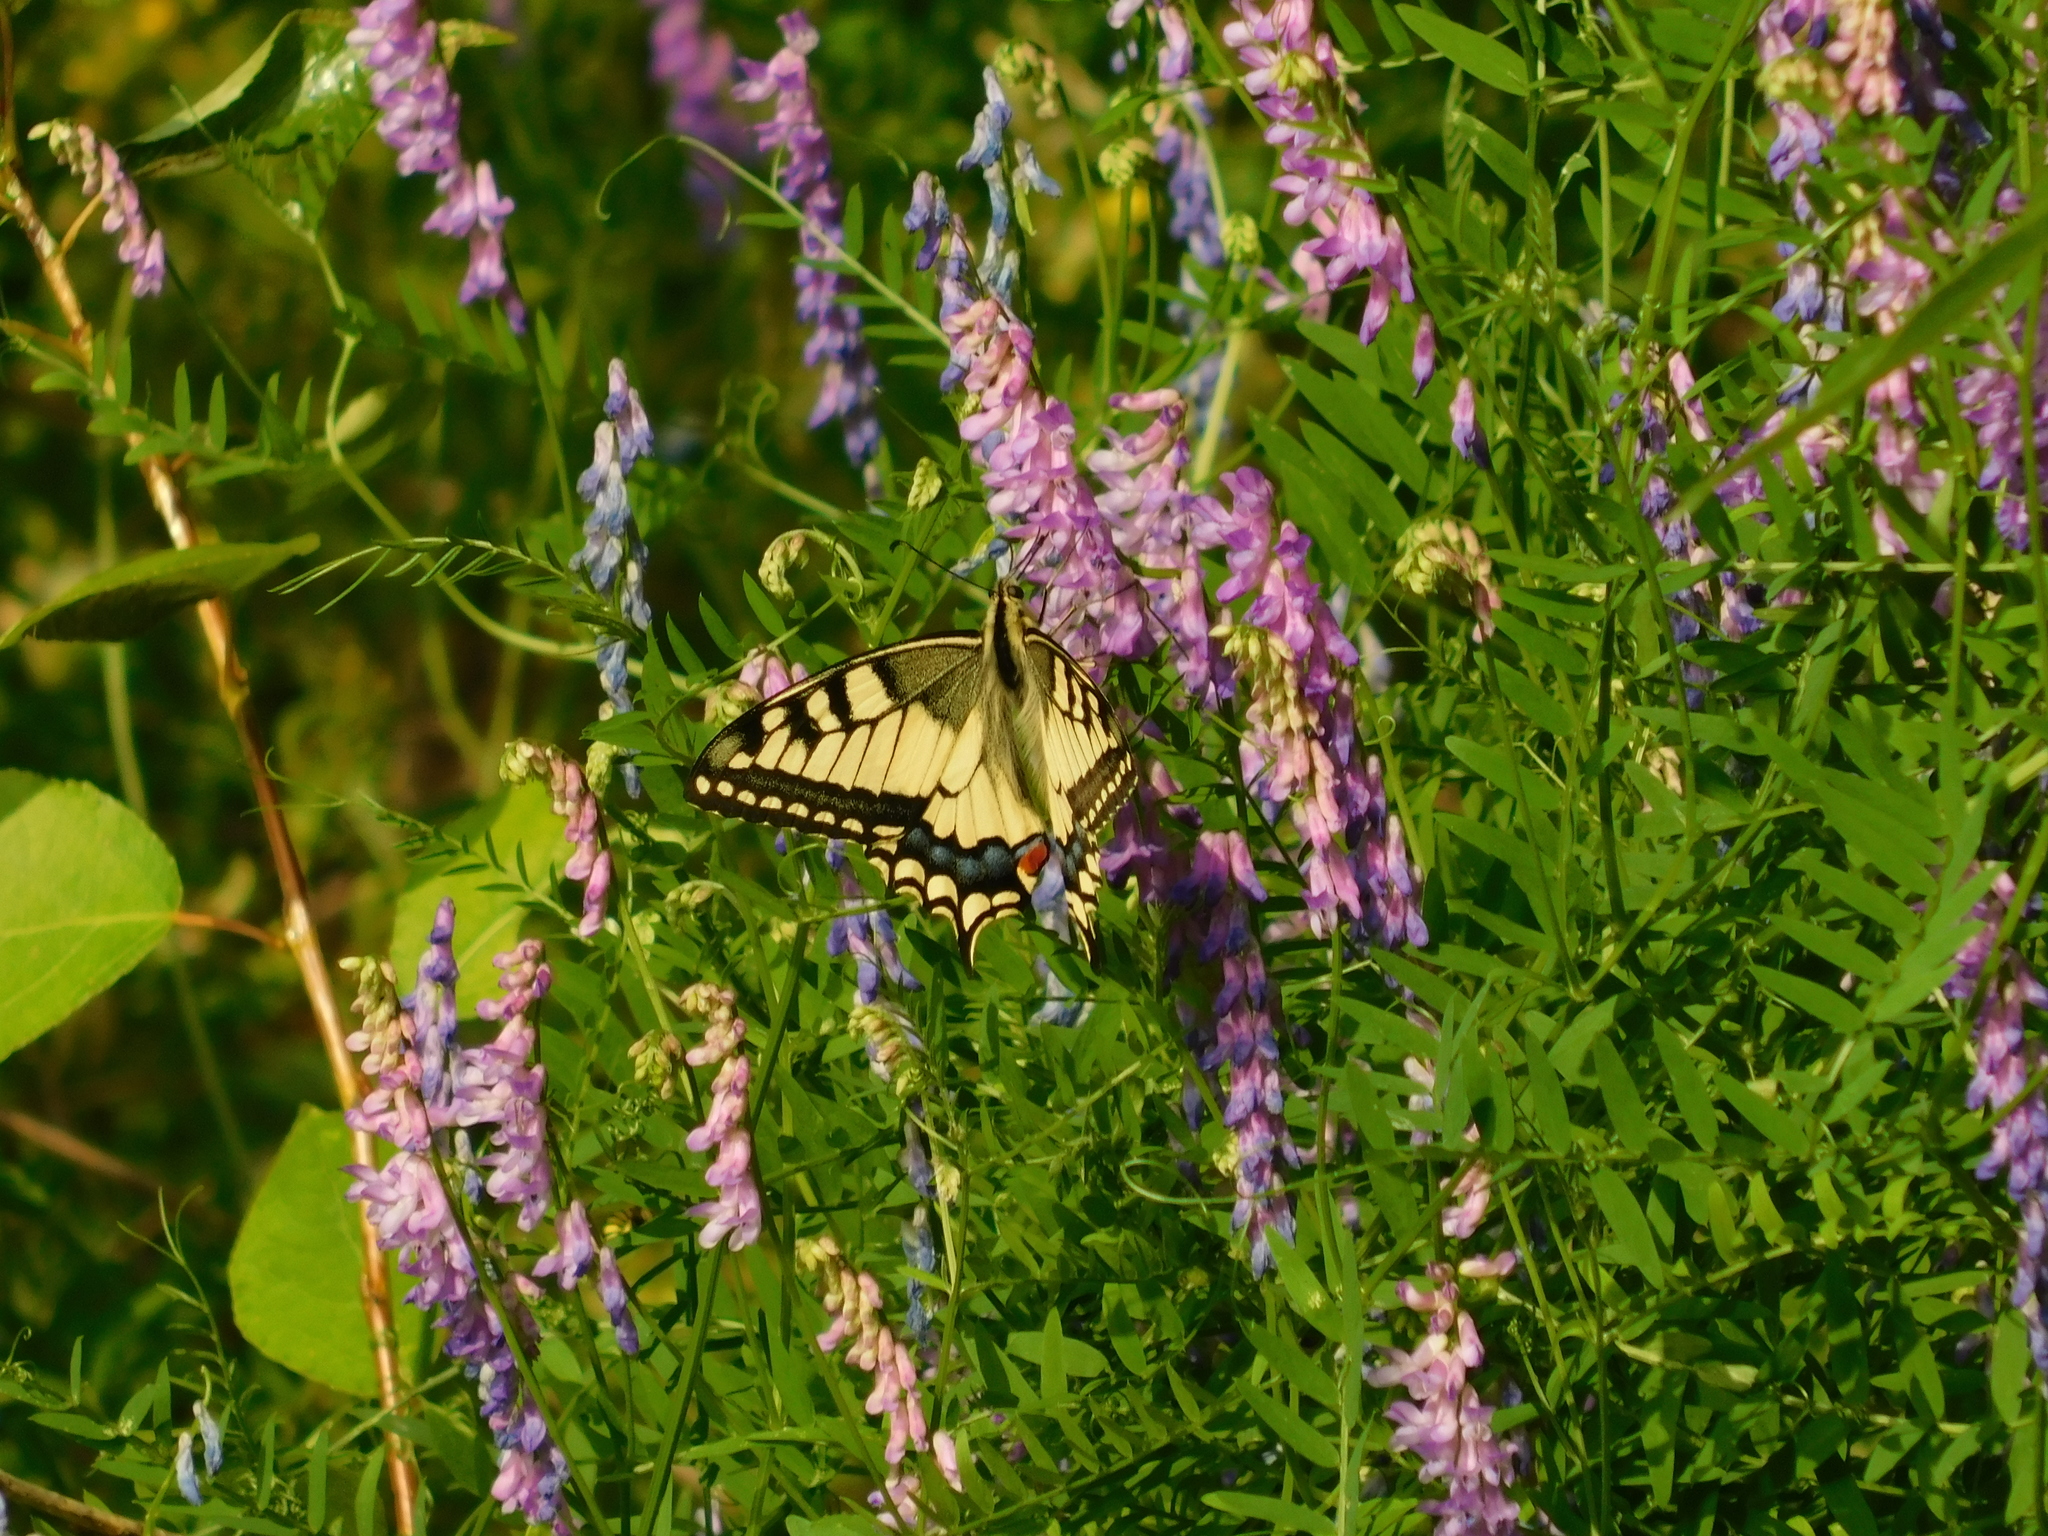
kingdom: Animalia
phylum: Arthropoda
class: Insecta
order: Lepidoptera
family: Papilionidae
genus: Papilio
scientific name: Papilio machaon
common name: Swallowtail
